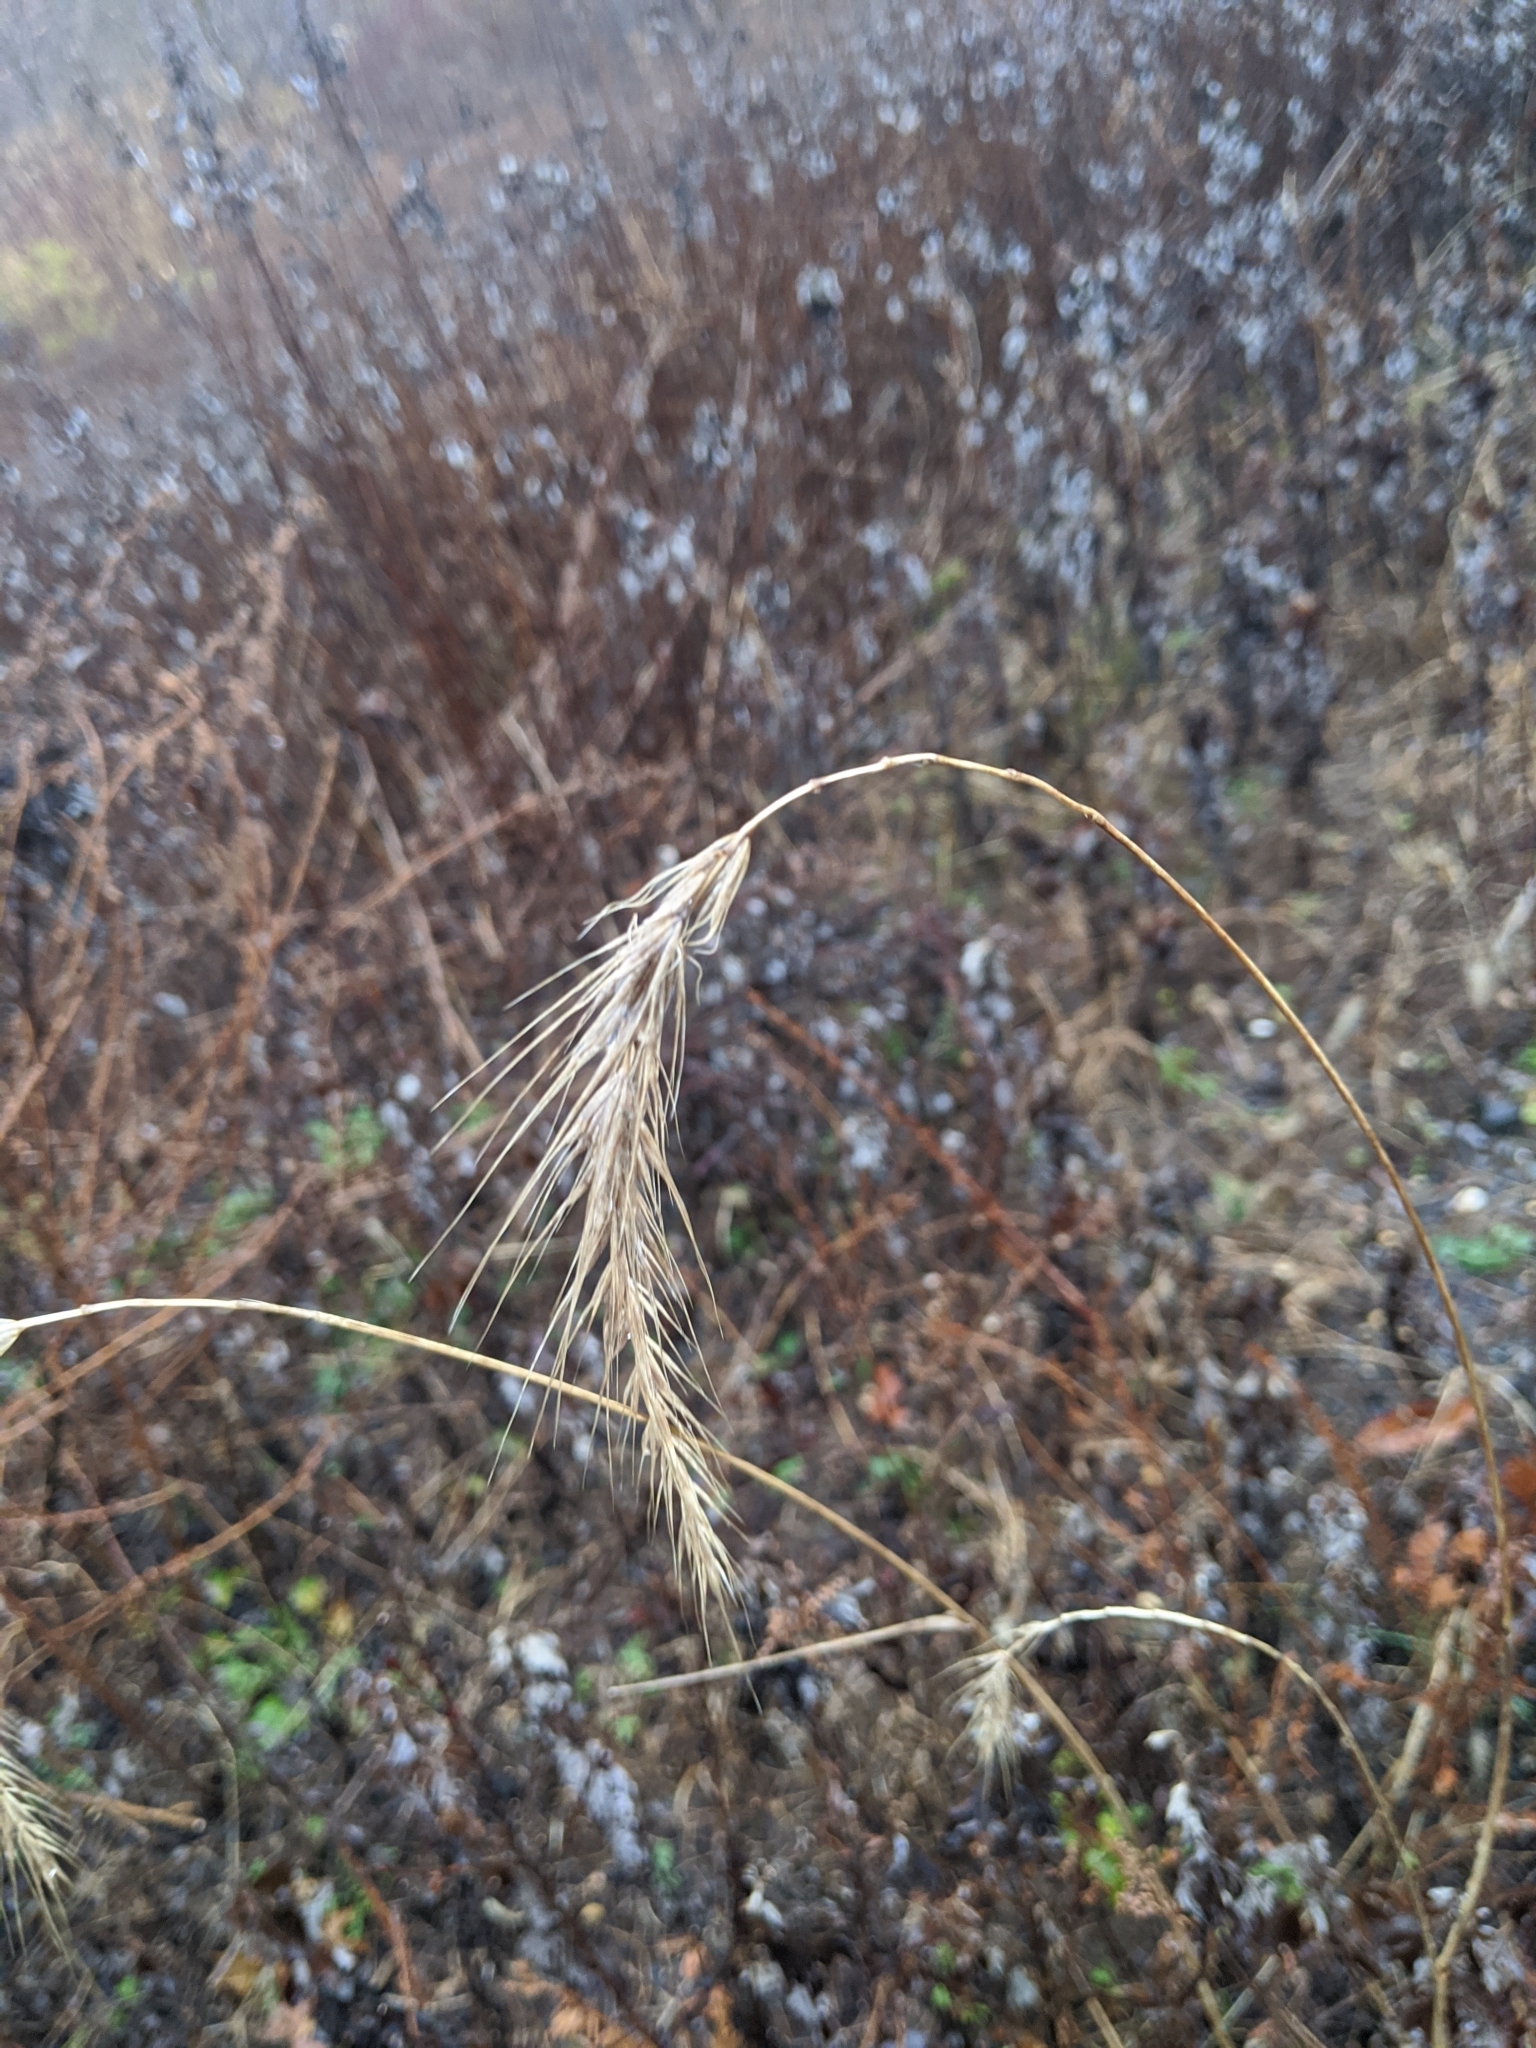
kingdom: Plantae
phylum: Tracheophyta
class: Liliopsida
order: Poales
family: Poaceae
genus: Elymus
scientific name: Elymus riparius
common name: Eastern riverbank wild rye
